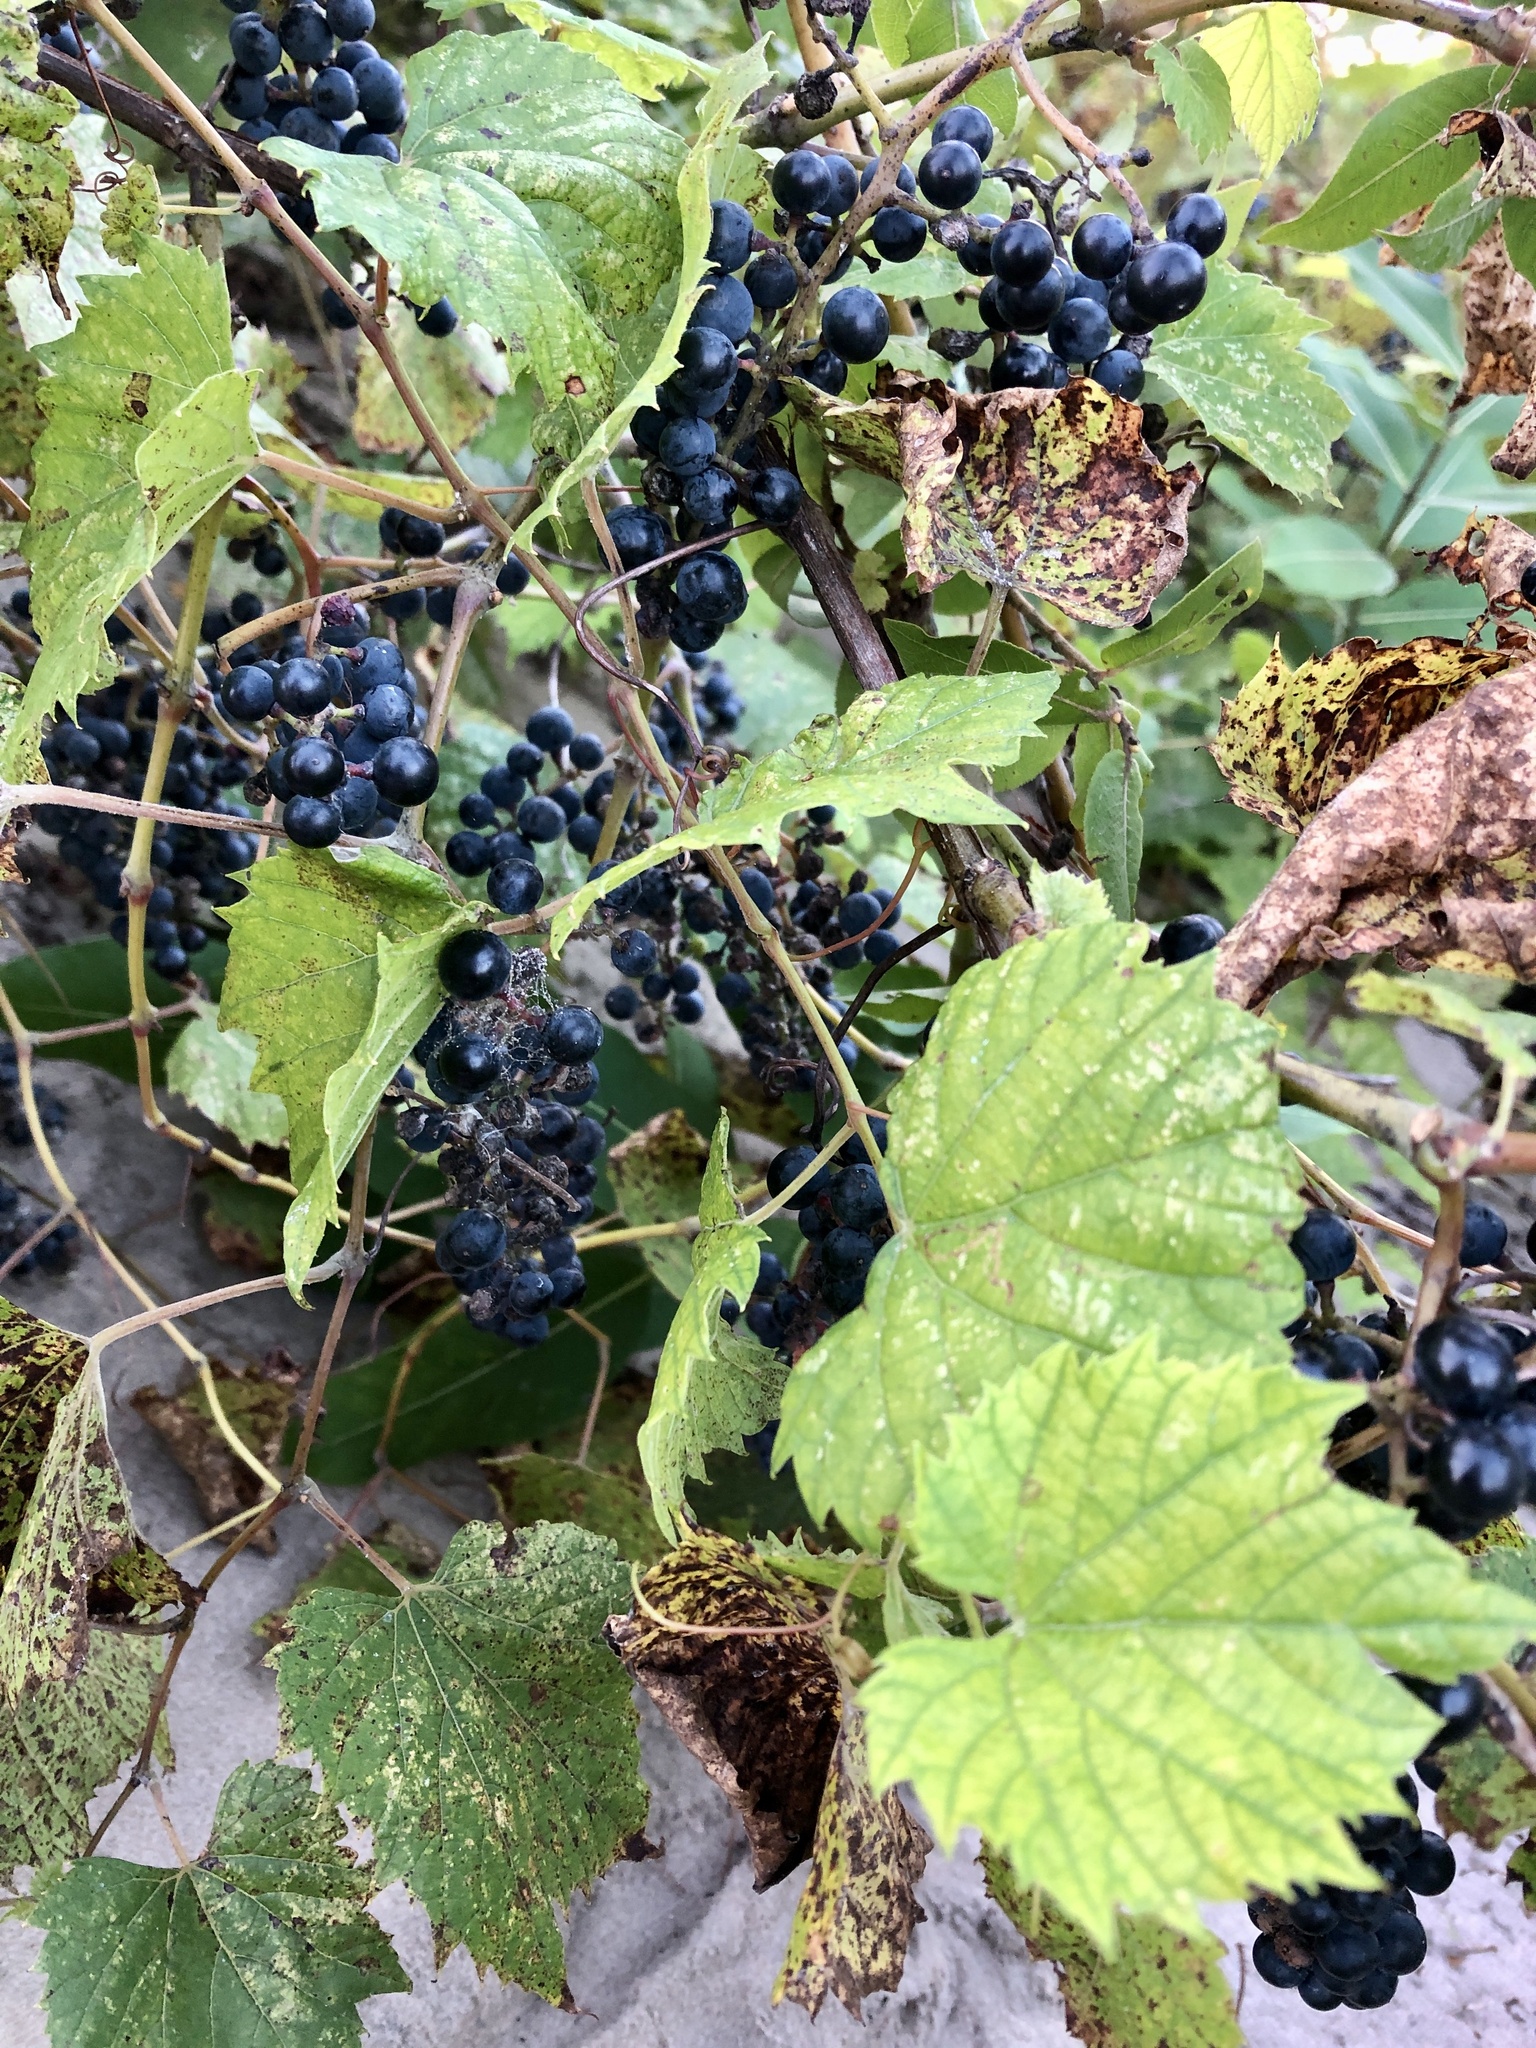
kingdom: Plantae
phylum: Tracheophyta
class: Magnoliopsida
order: Vitales
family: Vitaceae
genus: Vitis
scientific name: Vitis riparia
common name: Frost grape
